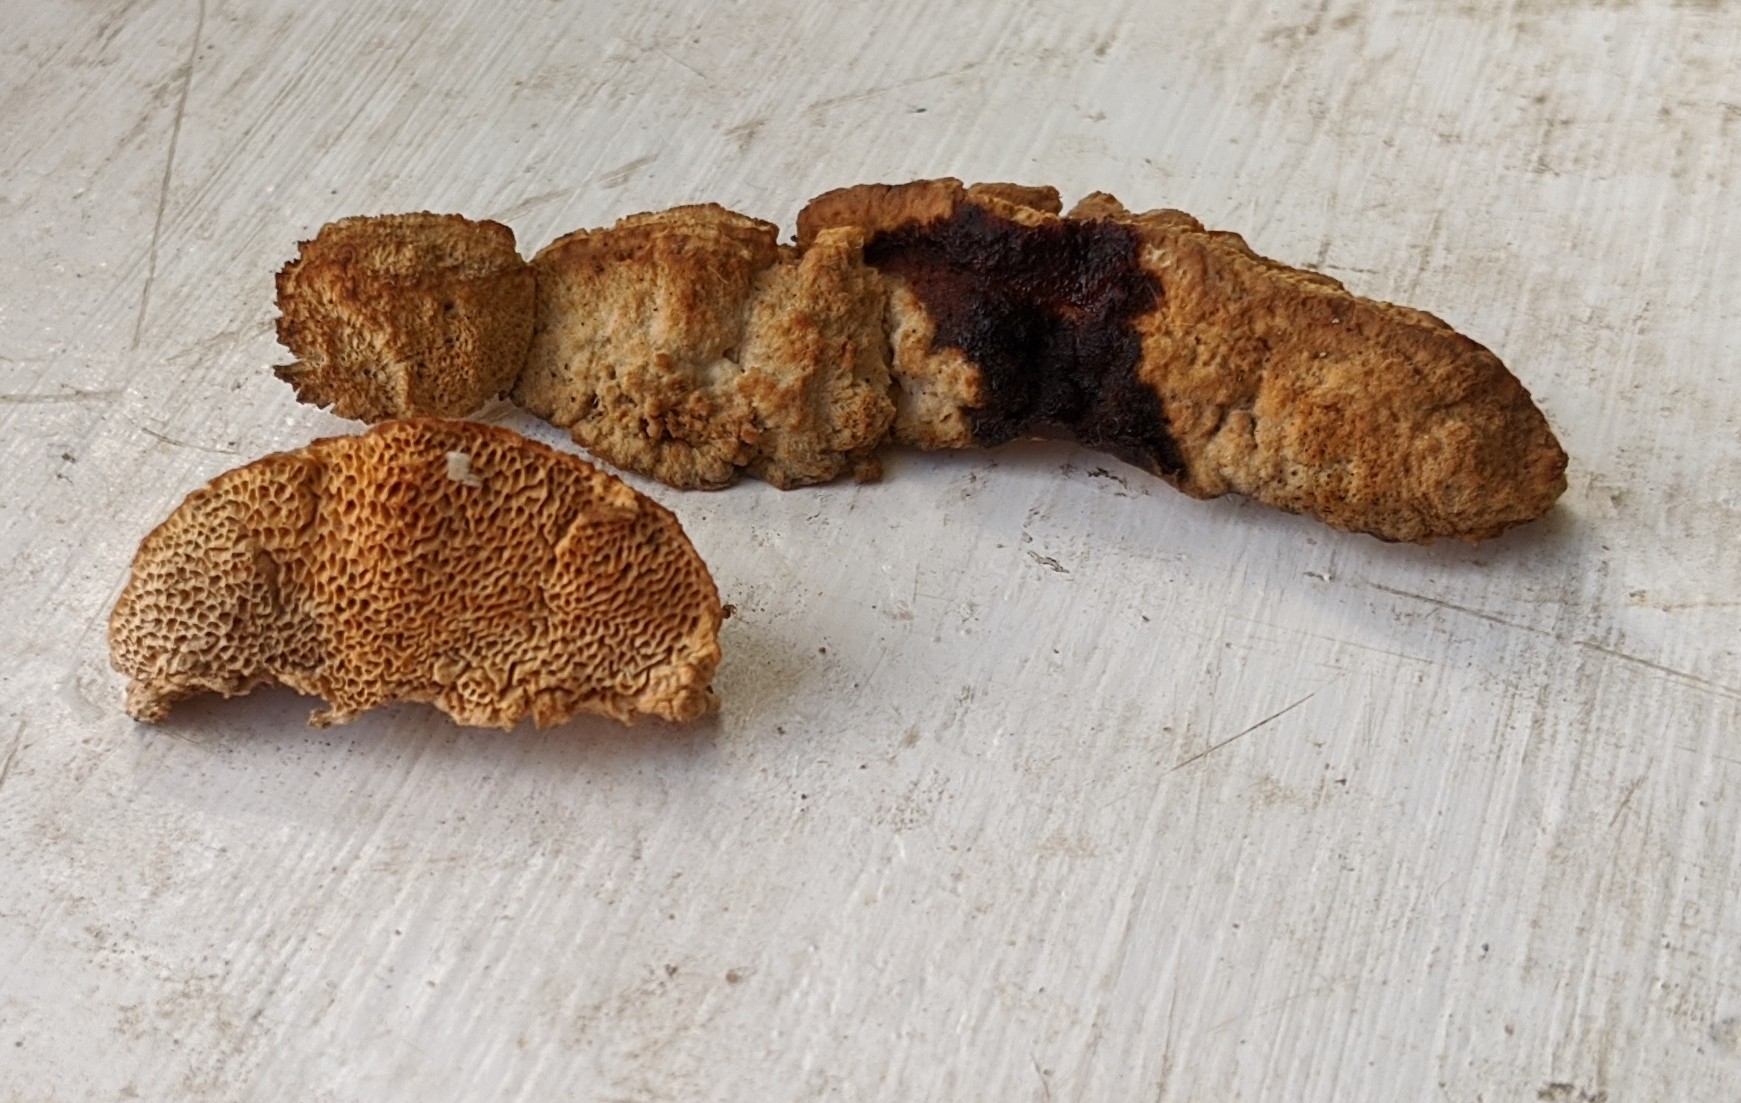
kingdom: Fungi
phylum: Basidiomycota
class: Agaricomycetes
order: Polyporales
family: Phanerochaetaceae
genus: Hapalopilus
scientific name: Hapalopilus rutilans
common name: Tender nesting polypore
